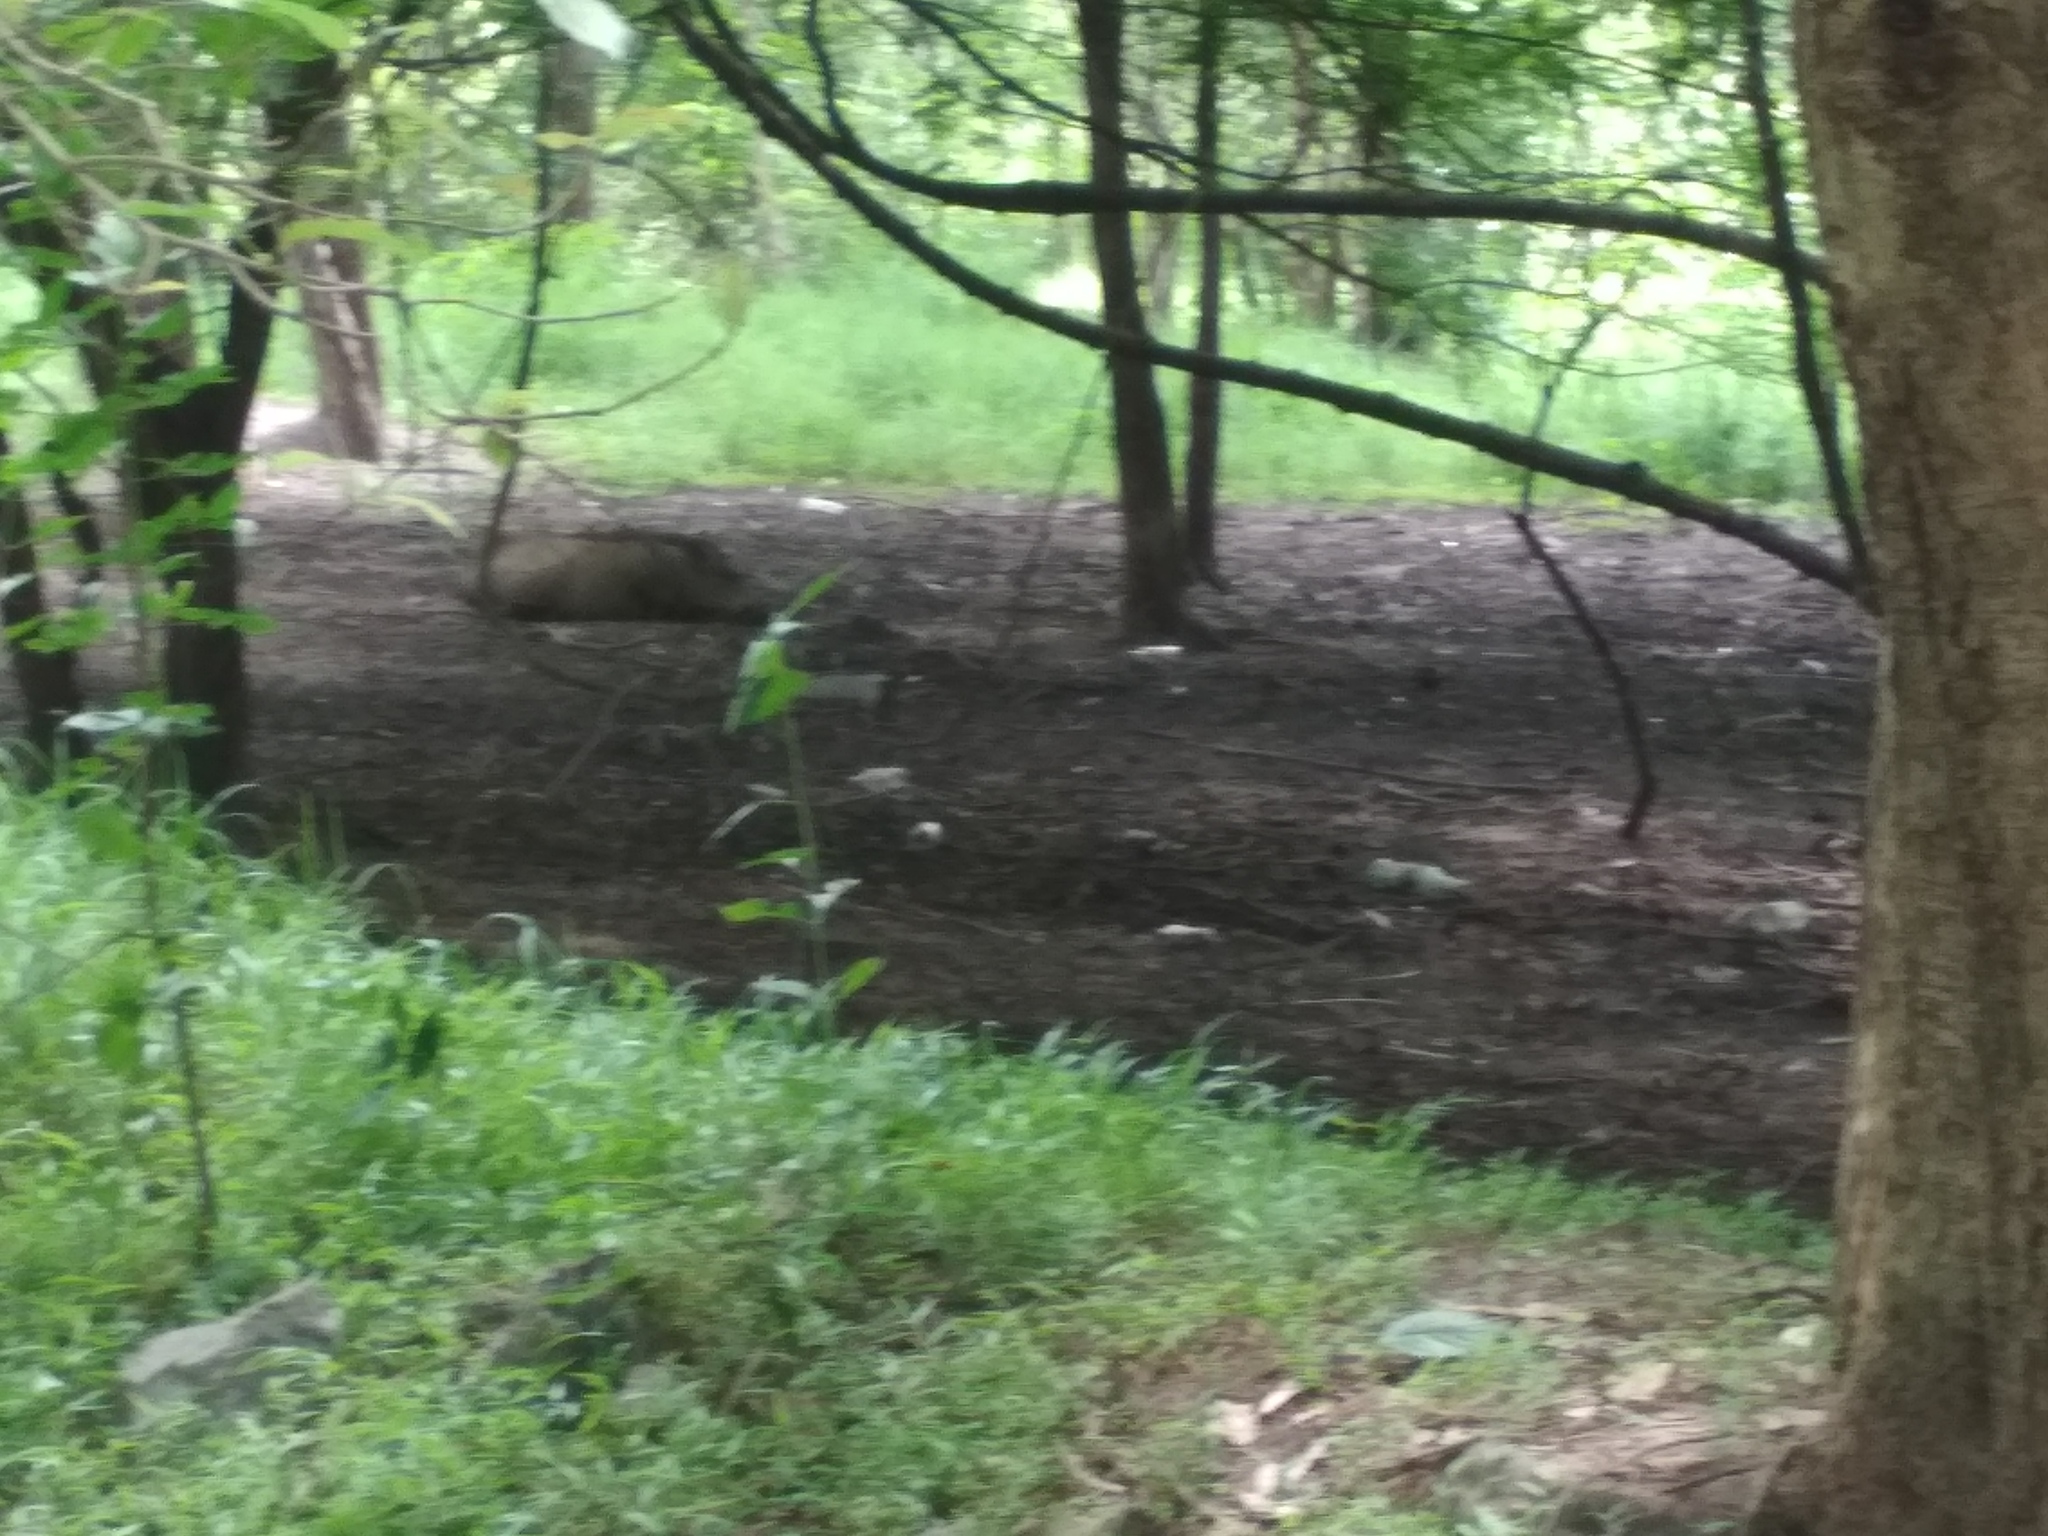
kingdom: Animalia
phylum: Chordata
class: Mammalia
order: Artiodactyla
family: Suidae
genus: Sus
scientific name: Sus scrofa
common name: Wild boar
